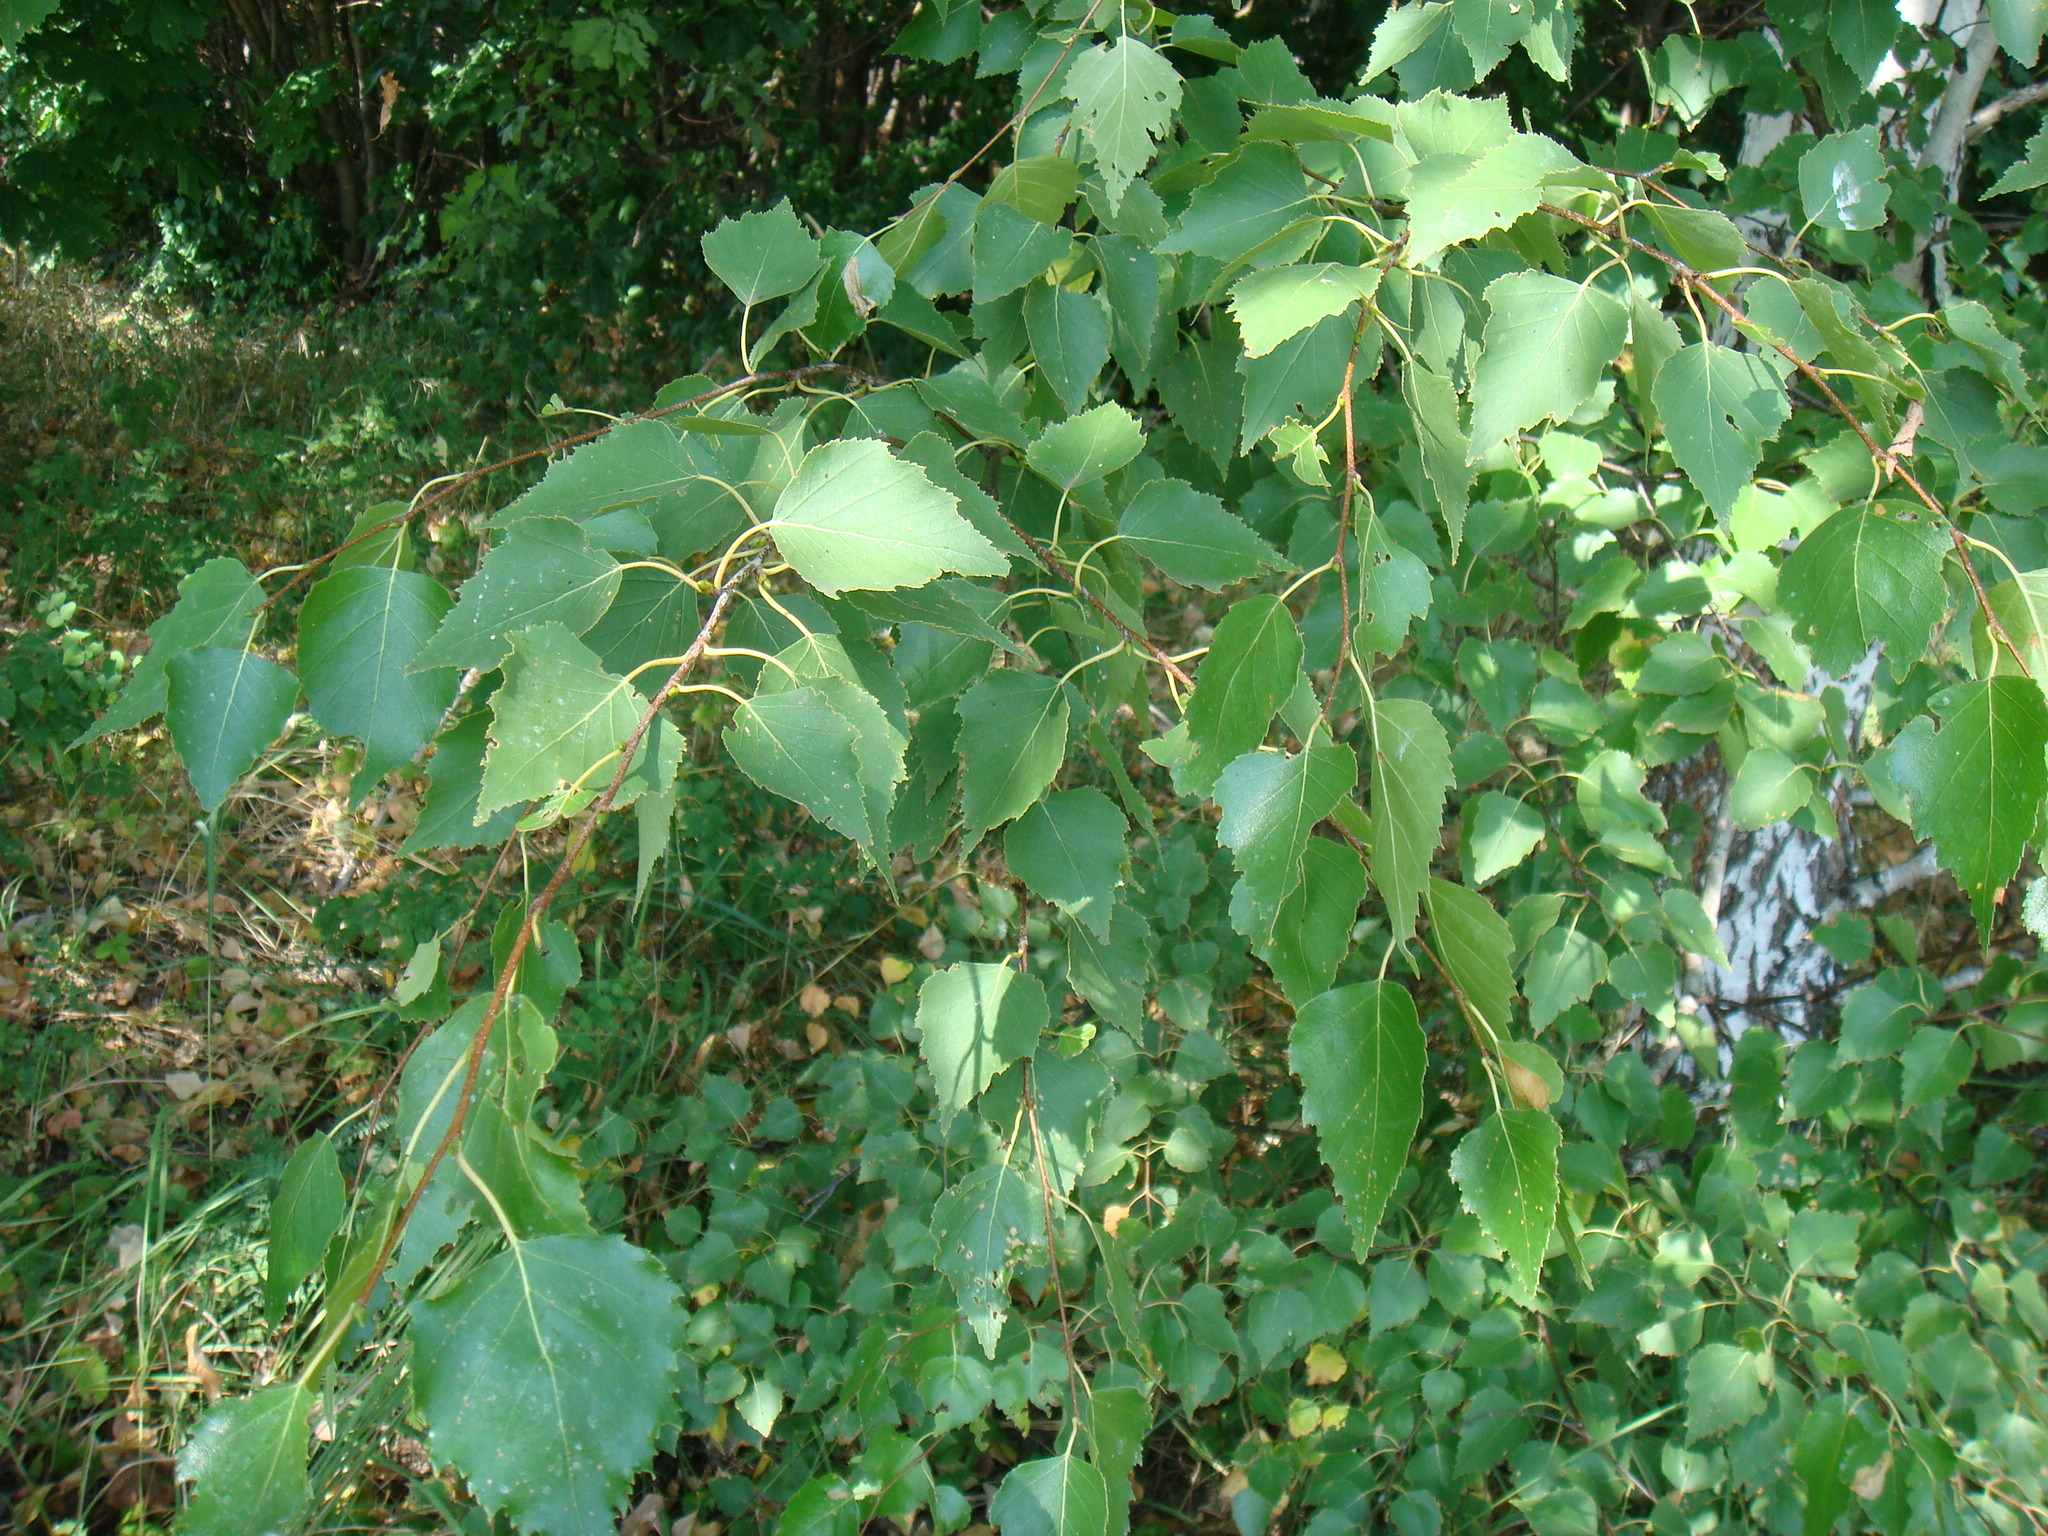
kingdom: Plantae
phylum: Tracheophyta
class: Magnoliopsida
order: Fagales
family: Betulaceae
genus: Betula
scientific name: Betula pendula
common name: Silver birch
